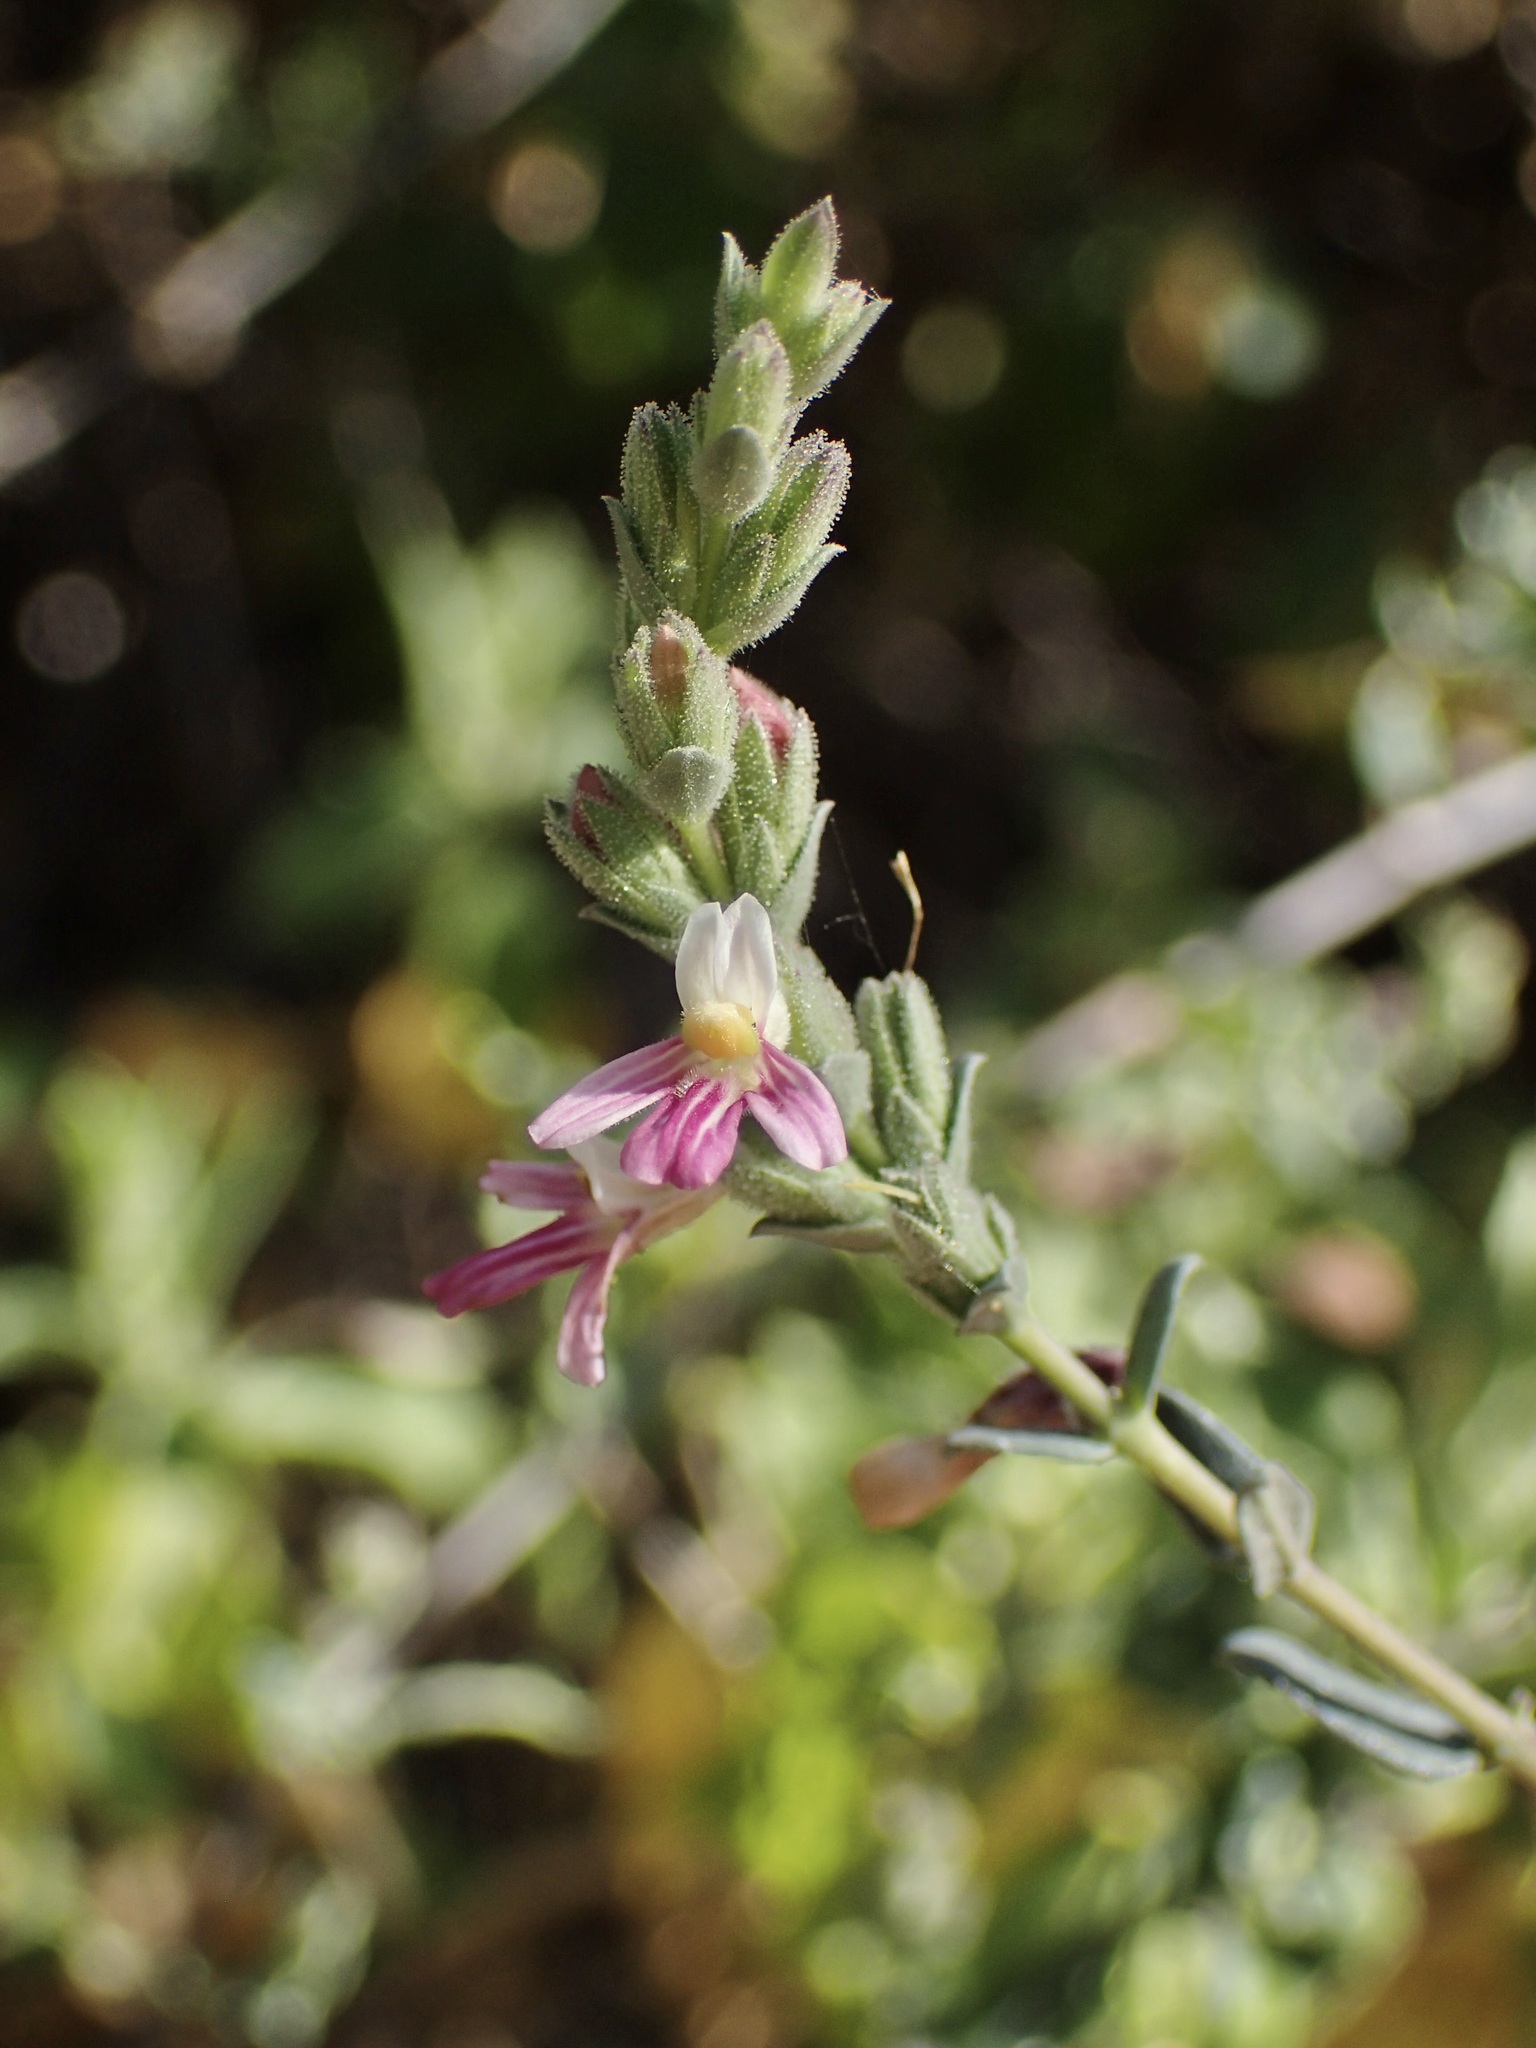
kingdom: Plantae
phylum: Tracheophyta
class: Magnoliopsida
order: Lamiales
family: Acanthaceae
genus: Holographis
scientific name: Holographis virgata
